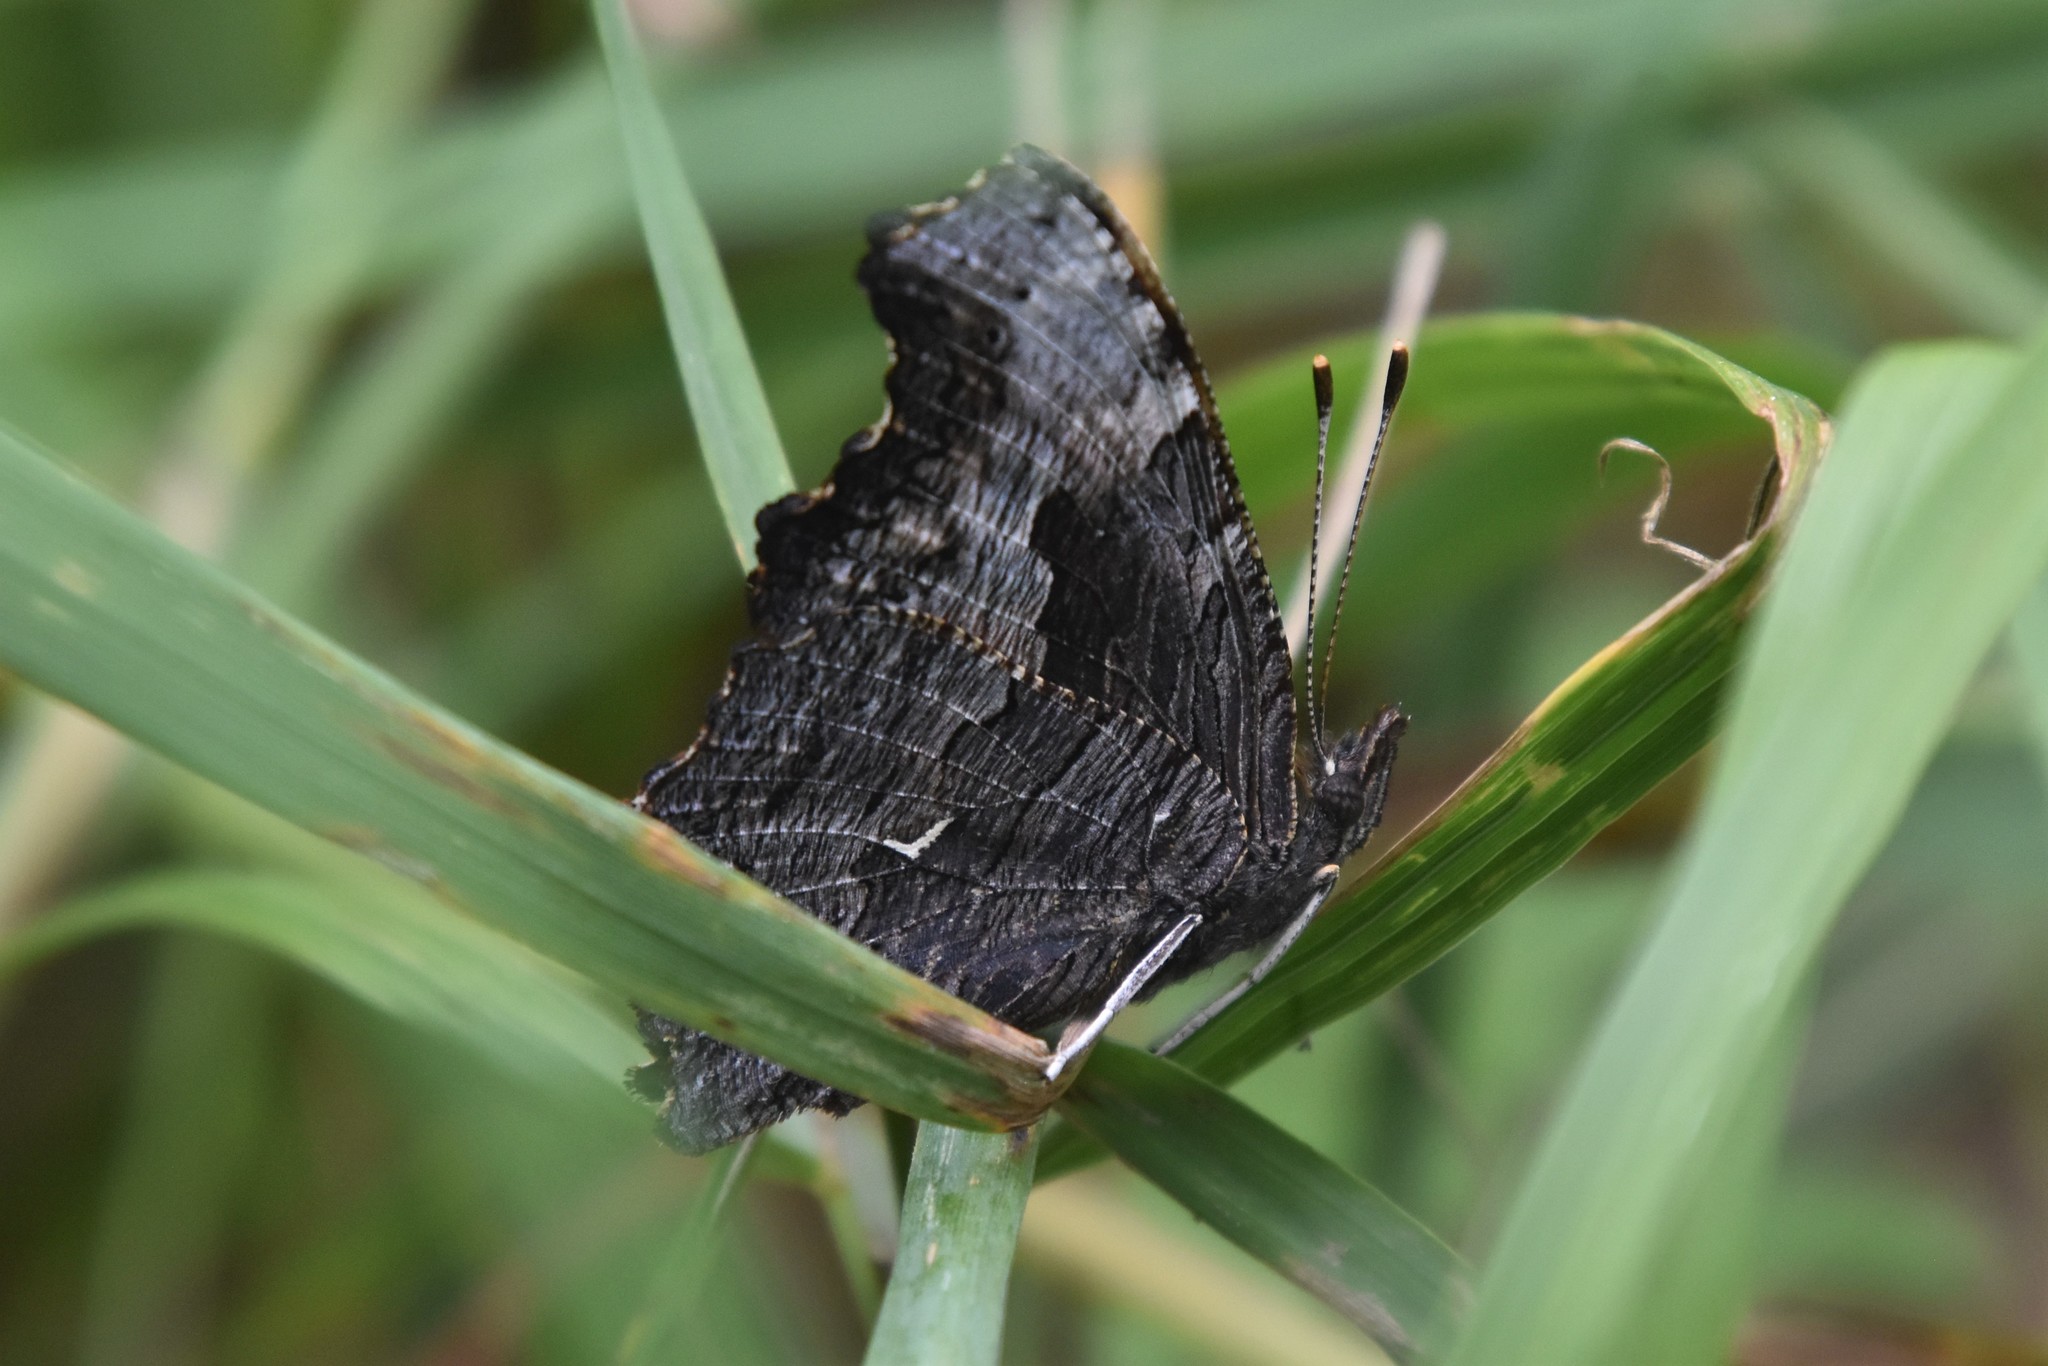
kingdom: Animalia
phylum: Arthropoda
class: Insecta
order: Lepidoptera
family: Nymphalidae
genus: Polygonia
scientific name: Polygonia progne
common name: Gray comma
